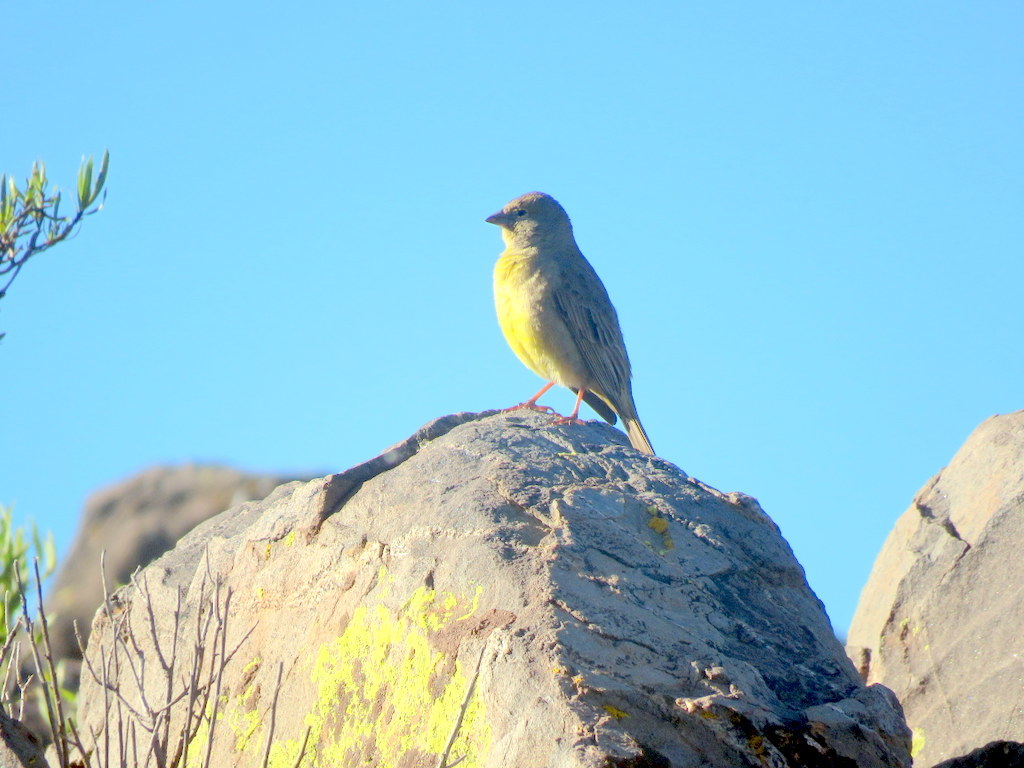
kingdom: Animalia
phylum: Chordata
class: Aves
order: Passeriformes
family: Thraupidae
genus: Sicalis
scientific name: Sicalis olivascens
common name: Greenish yellow finch
